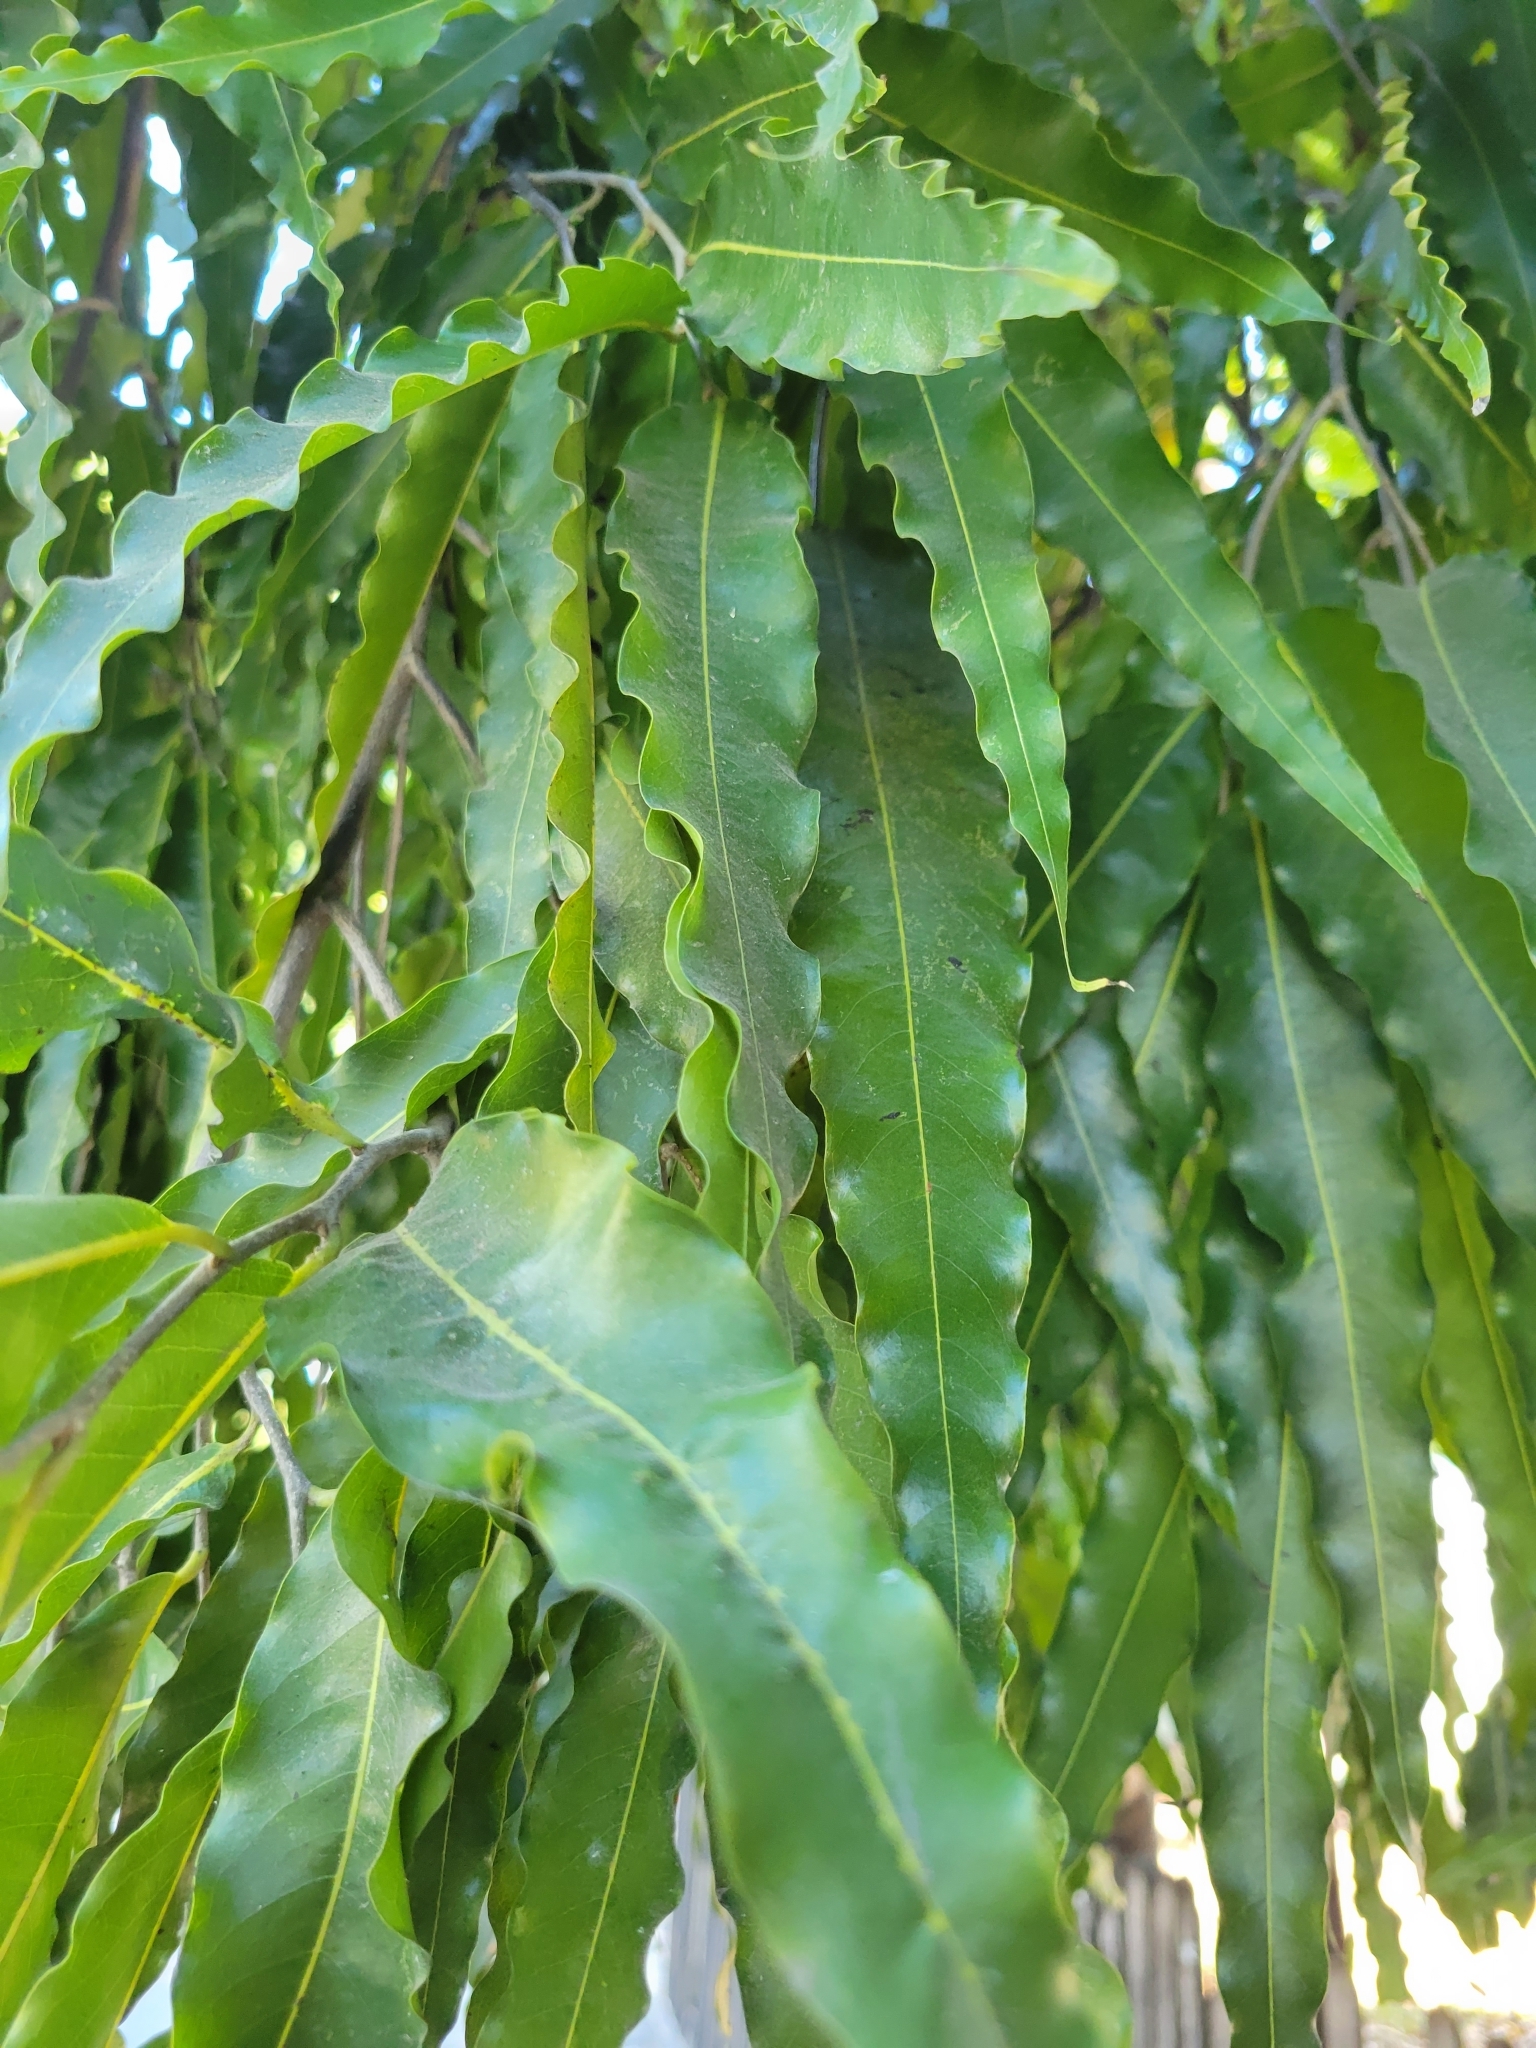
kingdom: Plantae
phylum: Tracheophyta
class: Magnoliopsida
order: Magnoliales
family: Annonaceae
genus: Polyalthia
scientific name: Polyalthia longifolia
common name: Cemetery-tree
